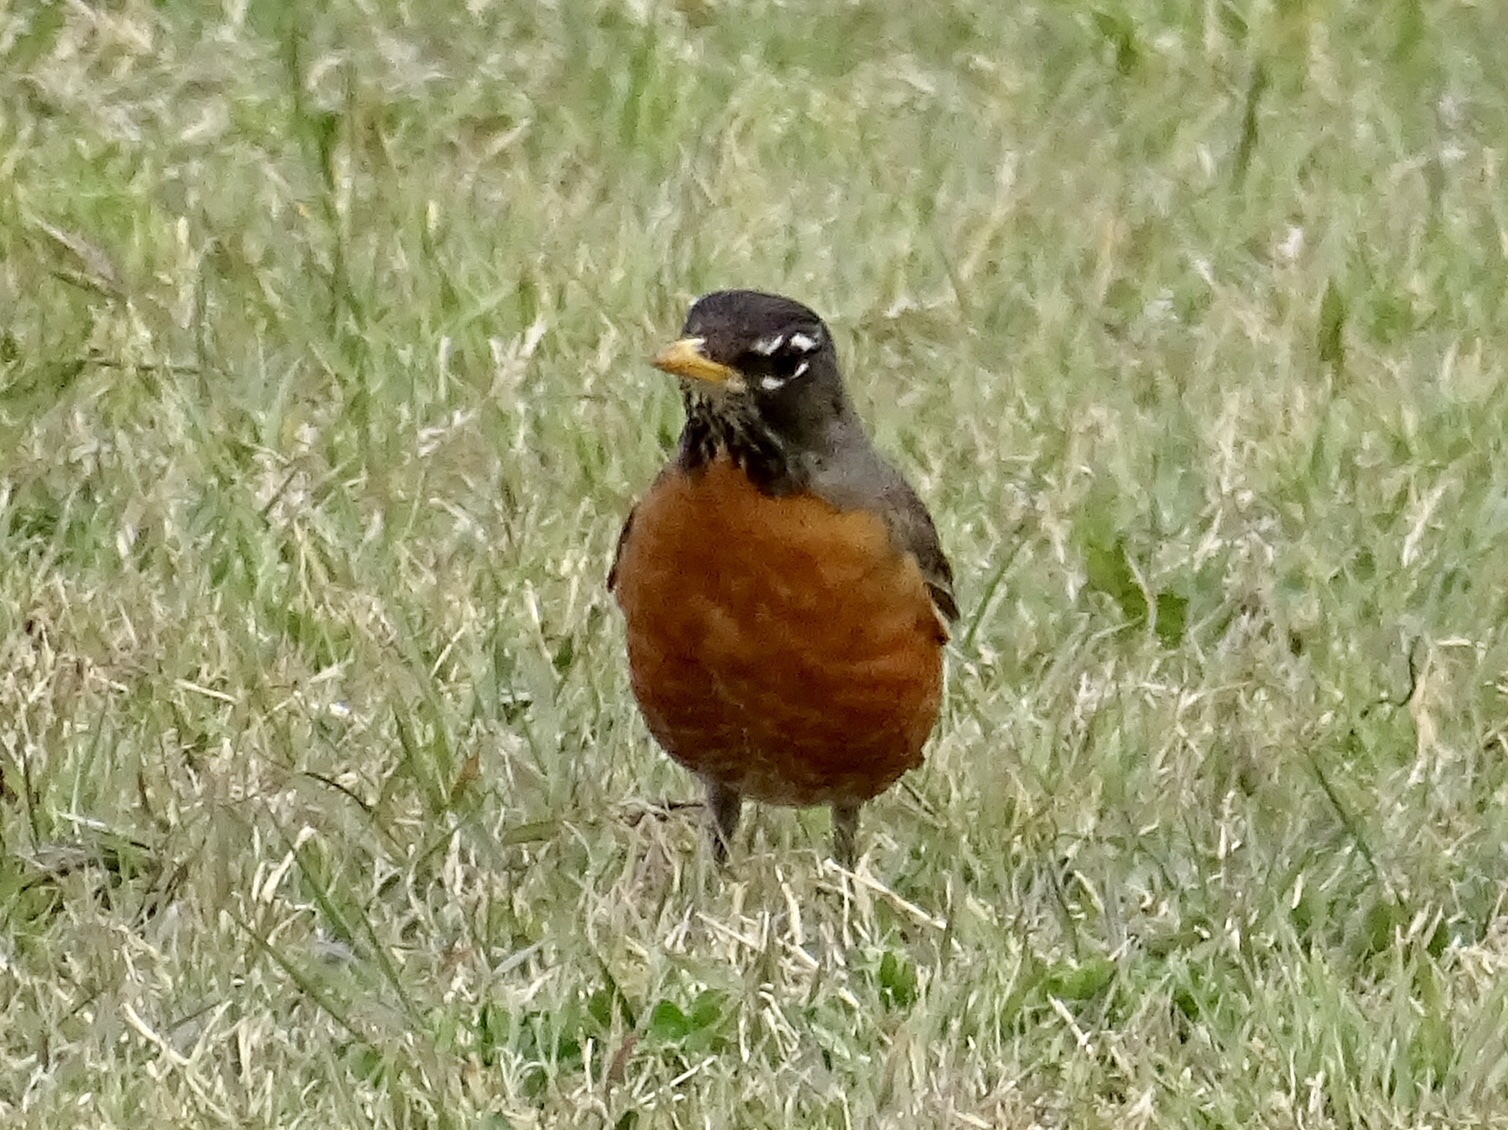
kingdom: Animalia
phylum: Chordata
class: Aves
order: Passeriformes
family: Turdidae
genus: Turdus
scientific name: Turdus migratorius
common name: American robin
